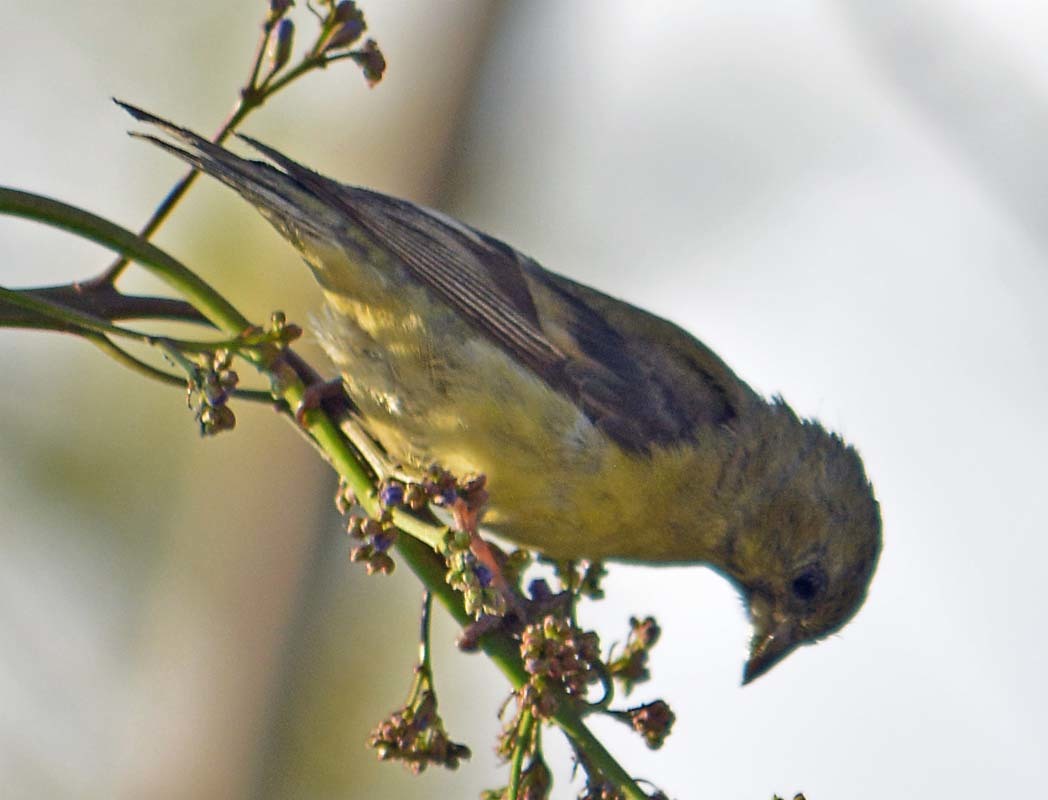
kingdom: Animalia
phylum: Chordata
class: Aves
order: Passeriformes
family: Fringillidae
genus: Spinus
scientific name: Spinus psaltria
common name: Lesser goldfinch
